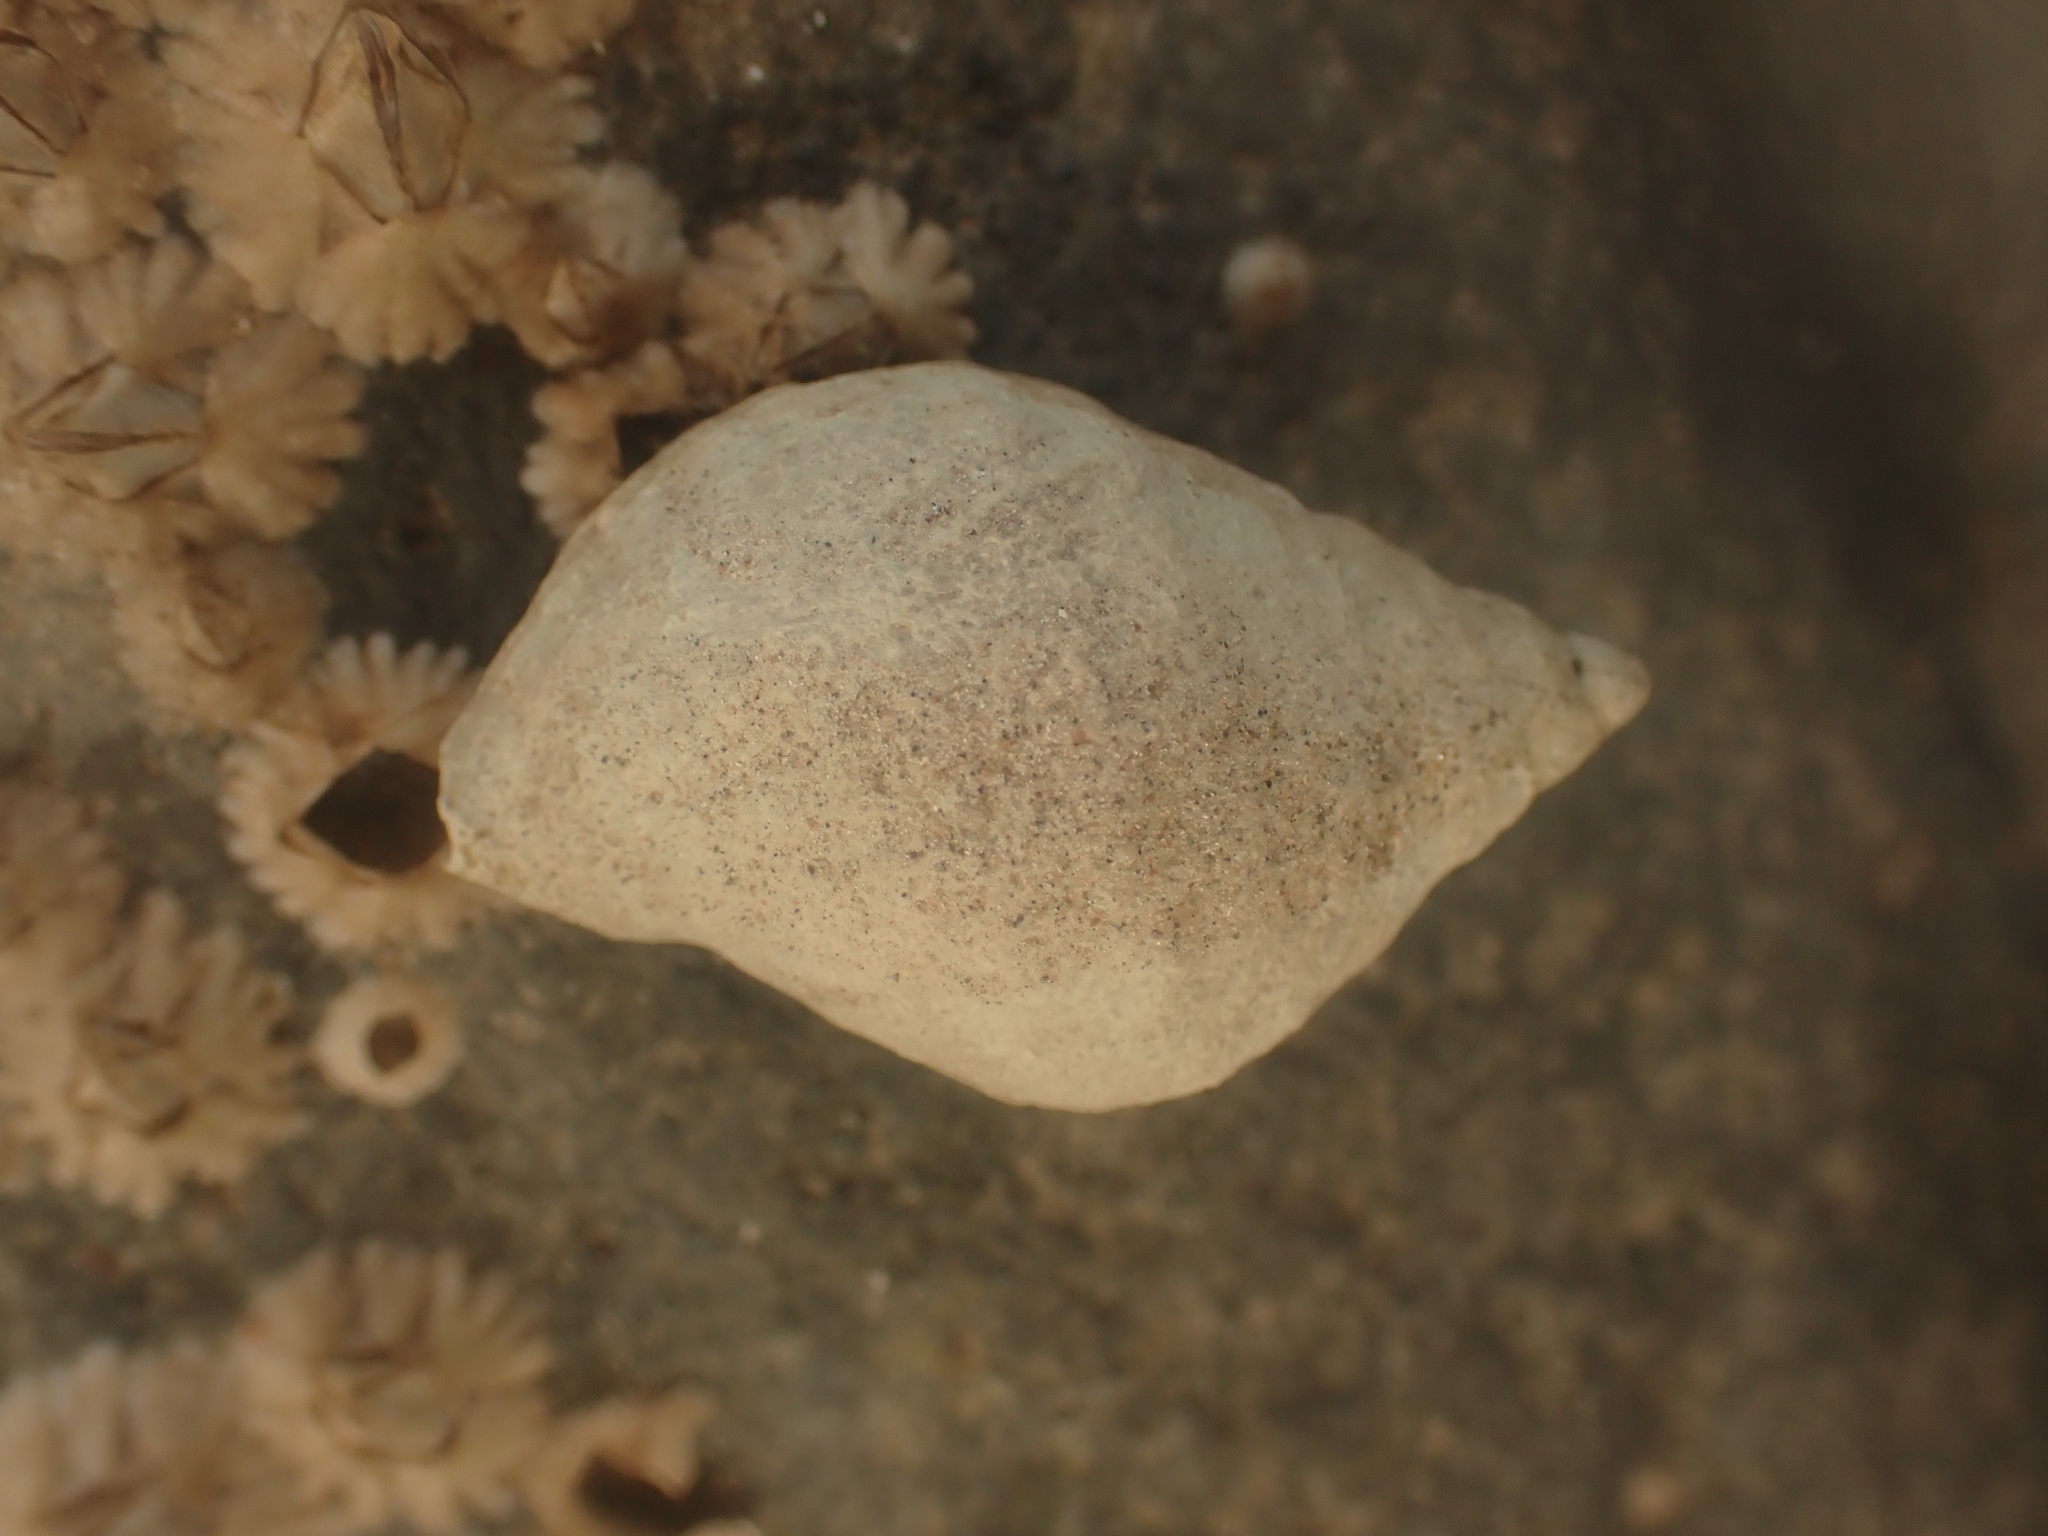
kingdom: Animalia
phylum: Mollusca
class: Gastropoda
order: Neogastropoda
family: Muricidae
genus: Nucella
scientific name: Nucella lapillus
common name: Dog whelk
